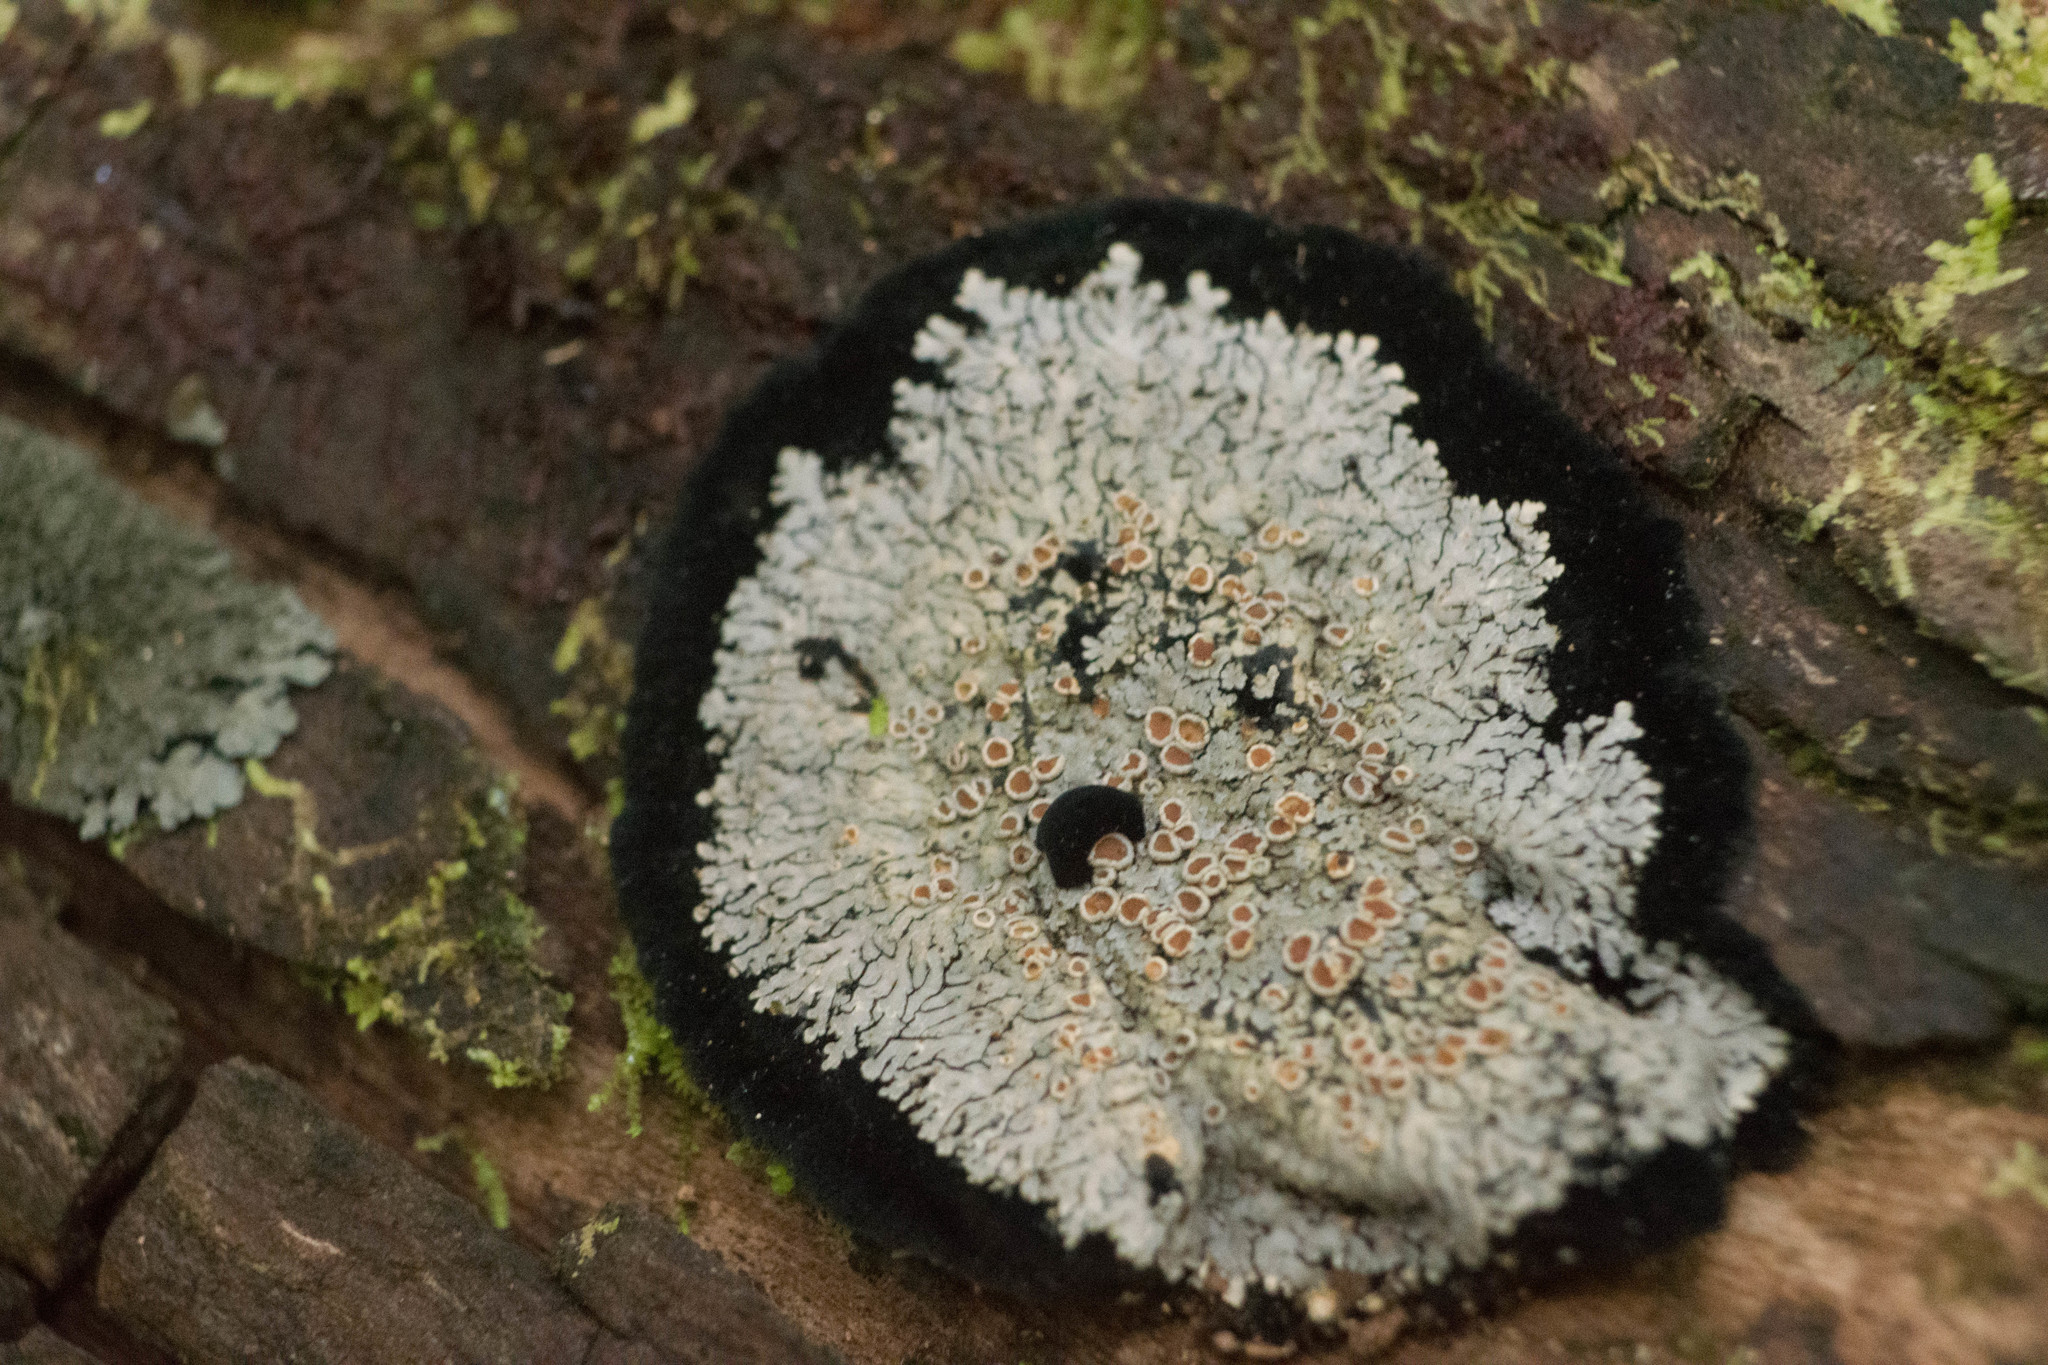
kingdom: Fungi
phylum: Ascomycota
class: Lecanoromycetes
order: Peltigerales
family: Pannariaceae
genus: Lepidocollema
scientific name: Lepidocollema marianum
